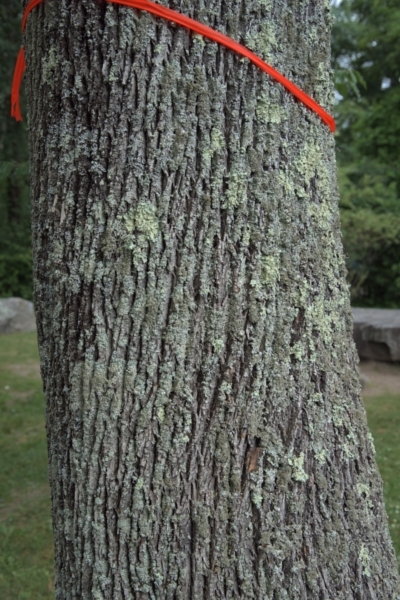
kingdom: Plantae
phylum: Tracheophyta
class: Magnoliopsida
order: Lamiales
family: Oleaceae
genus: Fraxinus
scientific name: Fraxinus americana
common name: White ash
